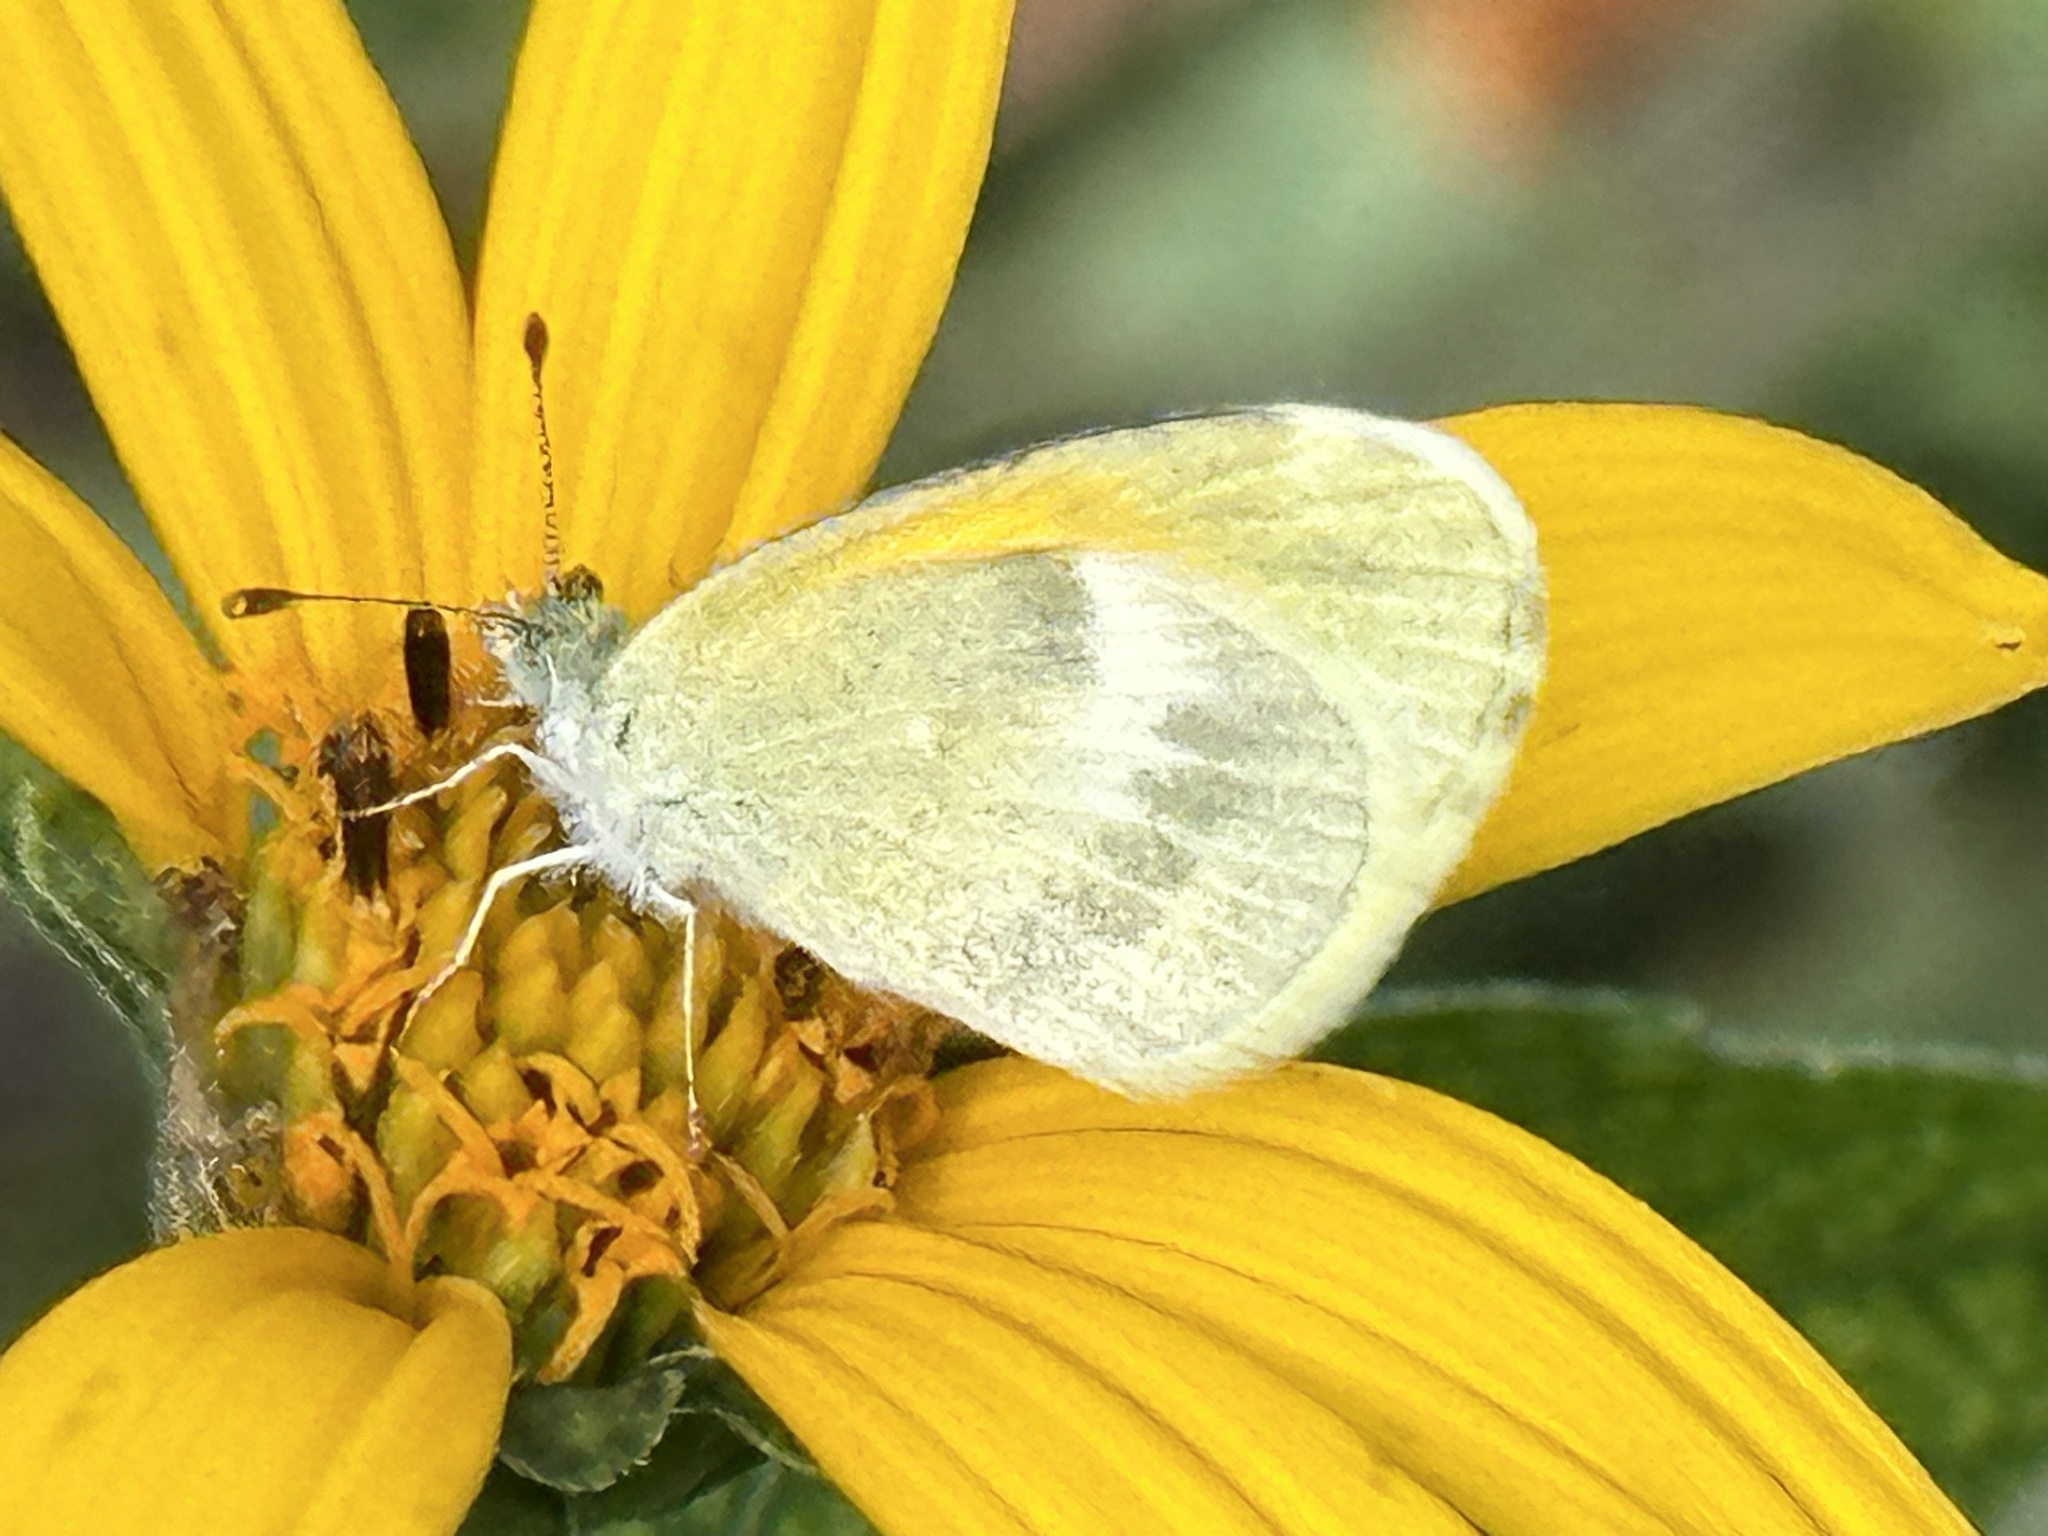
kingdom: Animalia
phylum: Arthropoda
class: Insecta
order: Lepidoptera
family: Pieridae
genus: Nathalis
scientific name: Nathalis iole
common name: Dainty sulphur
